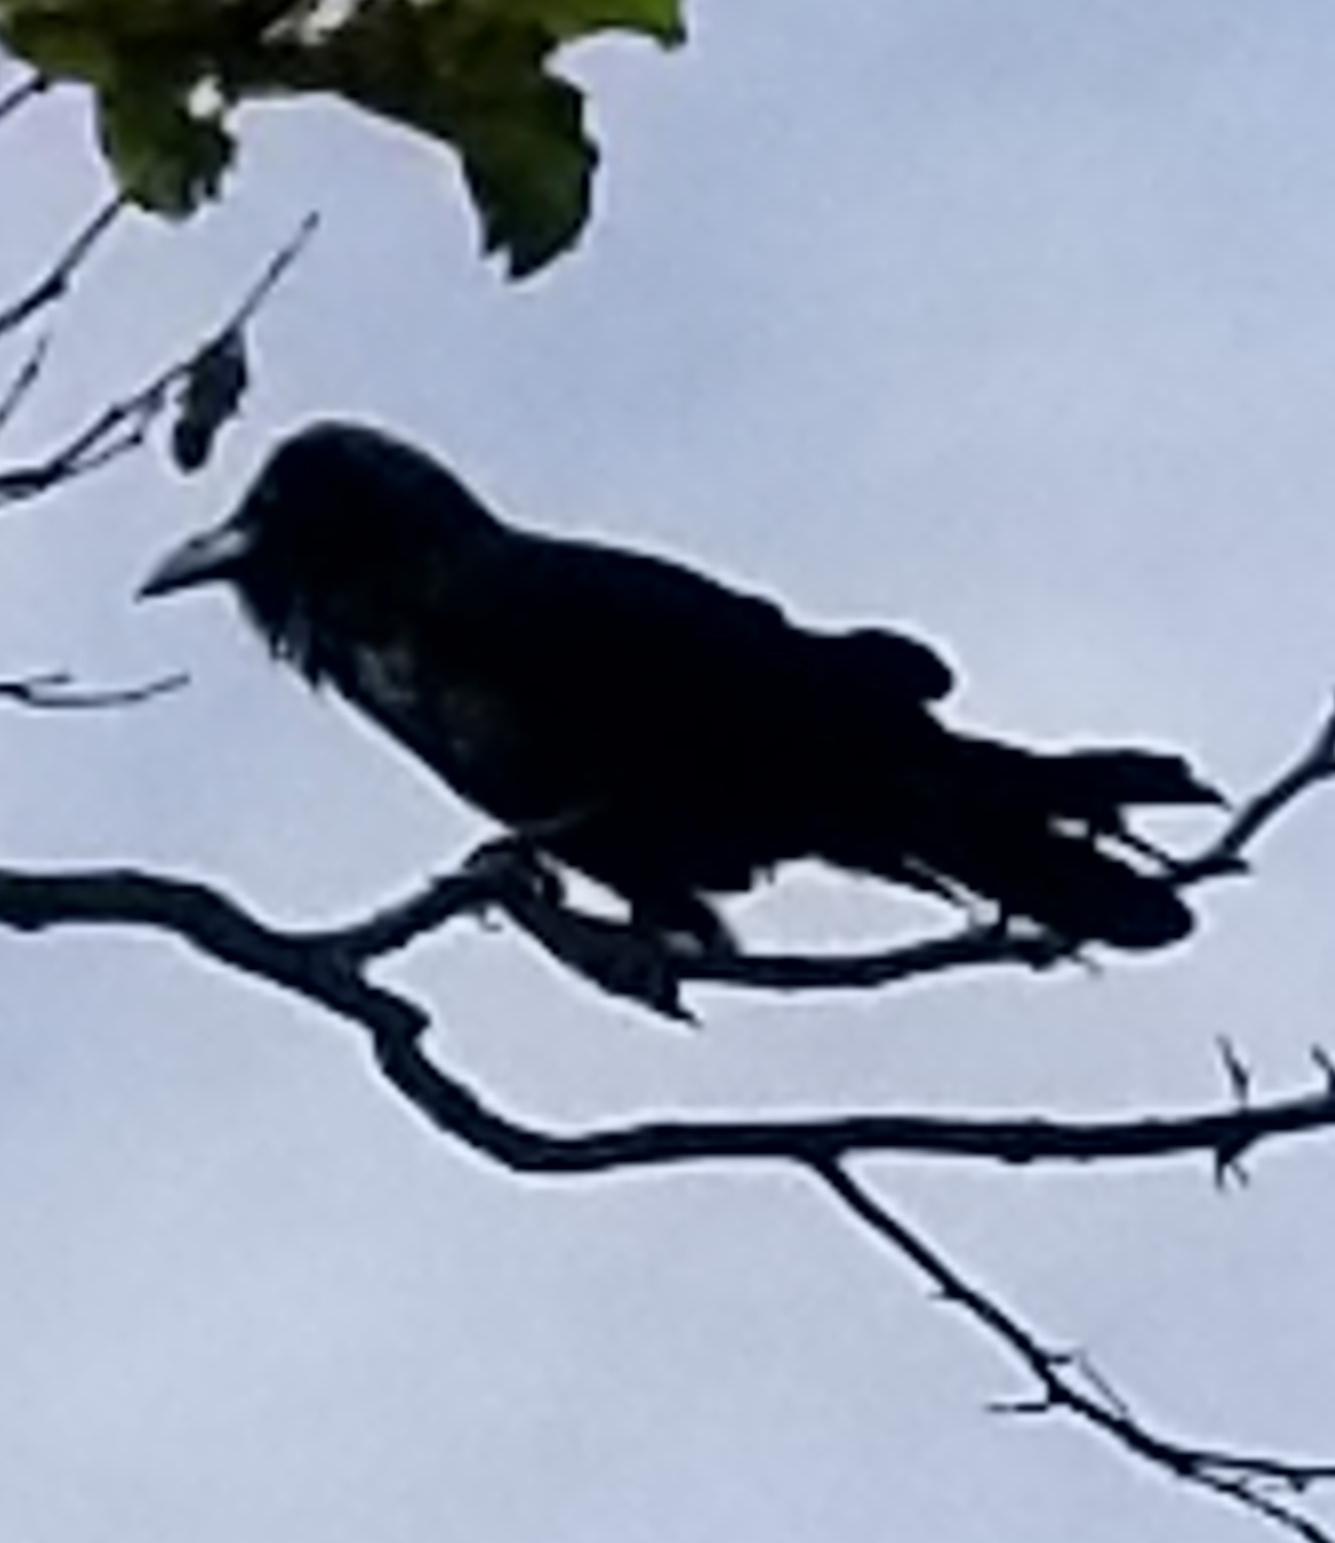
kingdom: Animalia
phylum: Chordata
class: Aves
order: Passeriformes
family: Corvidae
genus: Corvus
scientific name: Corvus corax
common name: Common raven
